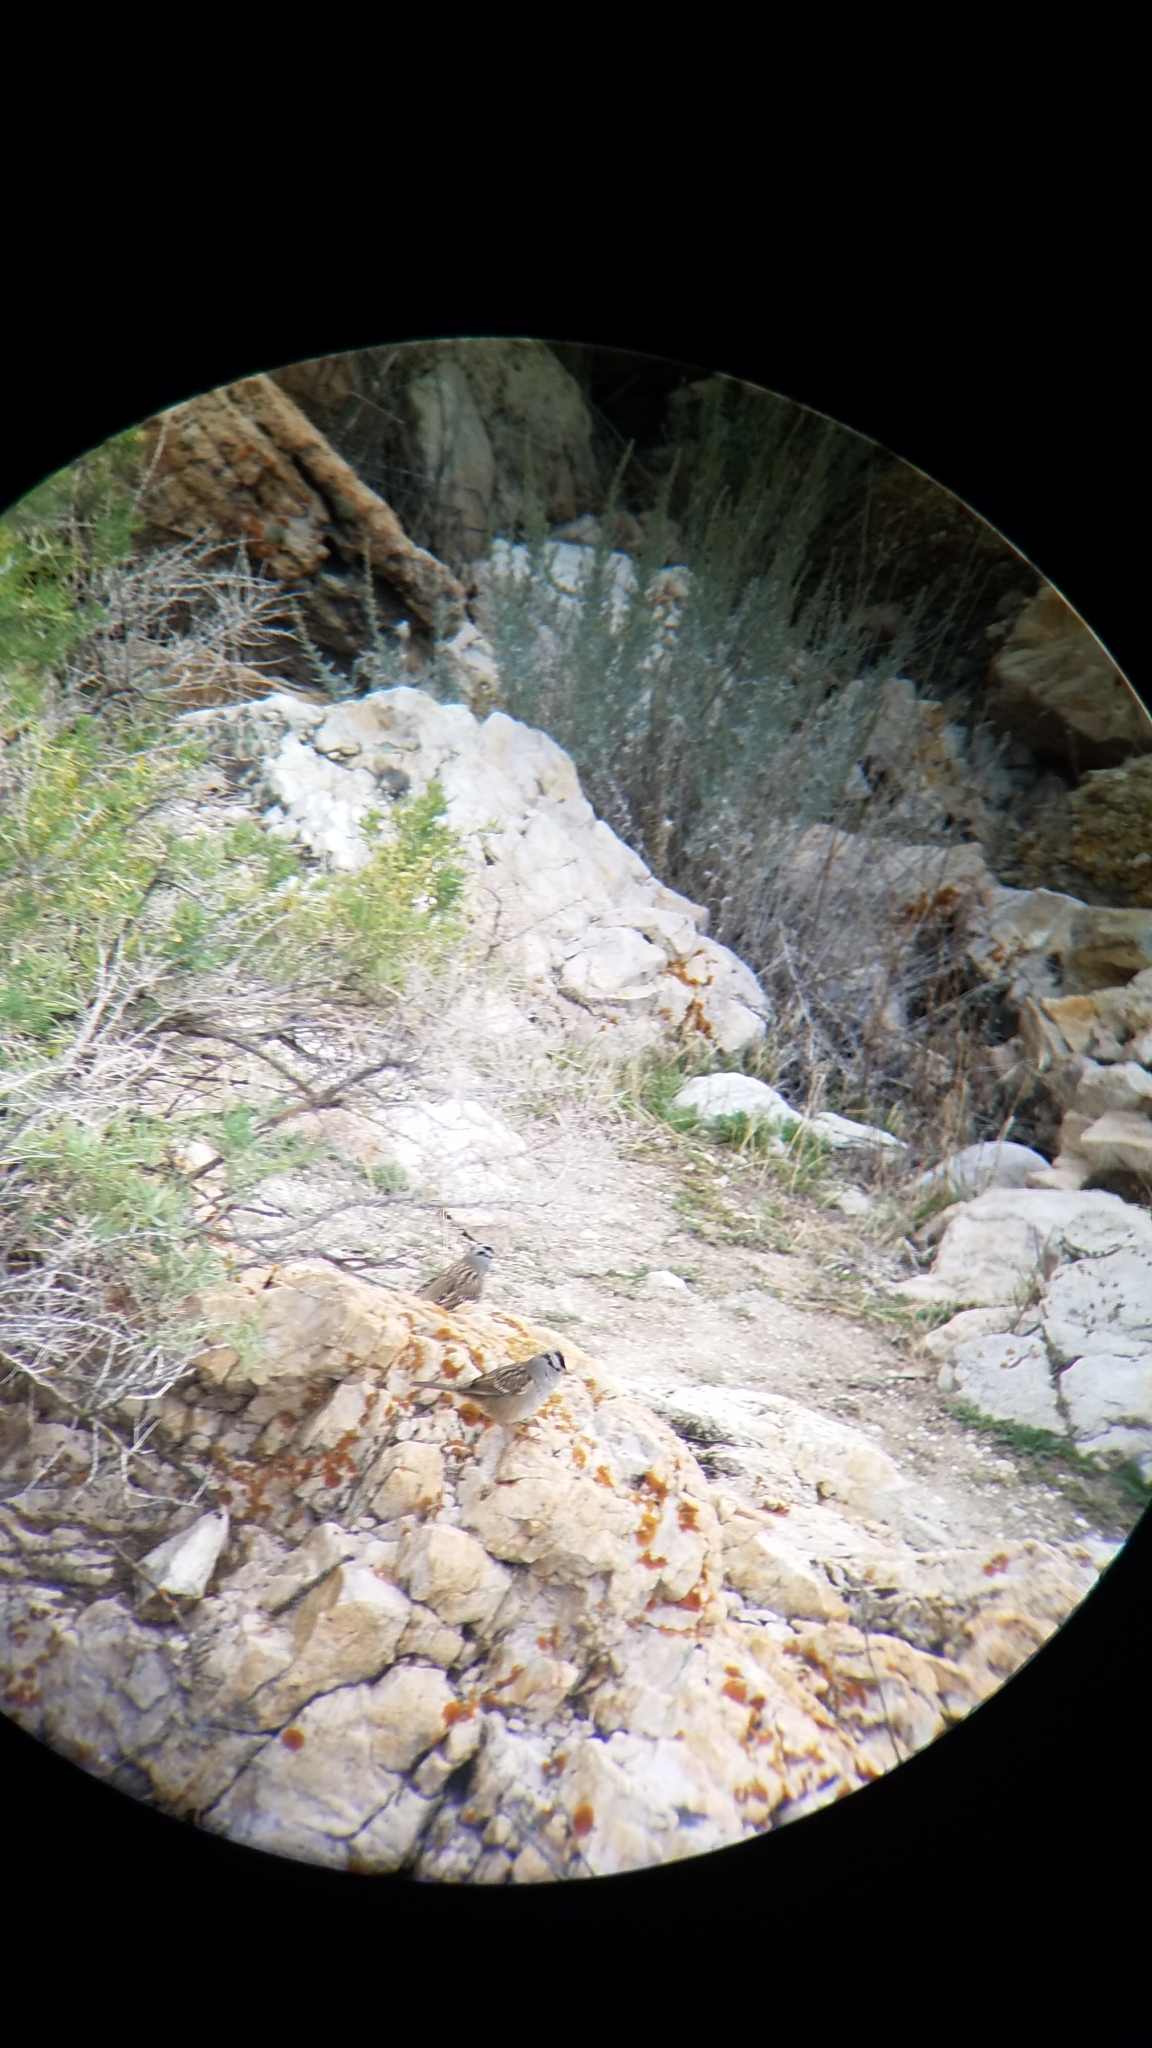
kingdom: Animalia
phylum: Chordata
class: Aves
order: Passeriformes
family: Passerellidae
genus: Zonotrichia
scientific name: Zonotrichia leucophrys
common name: White-crowned sparrow
